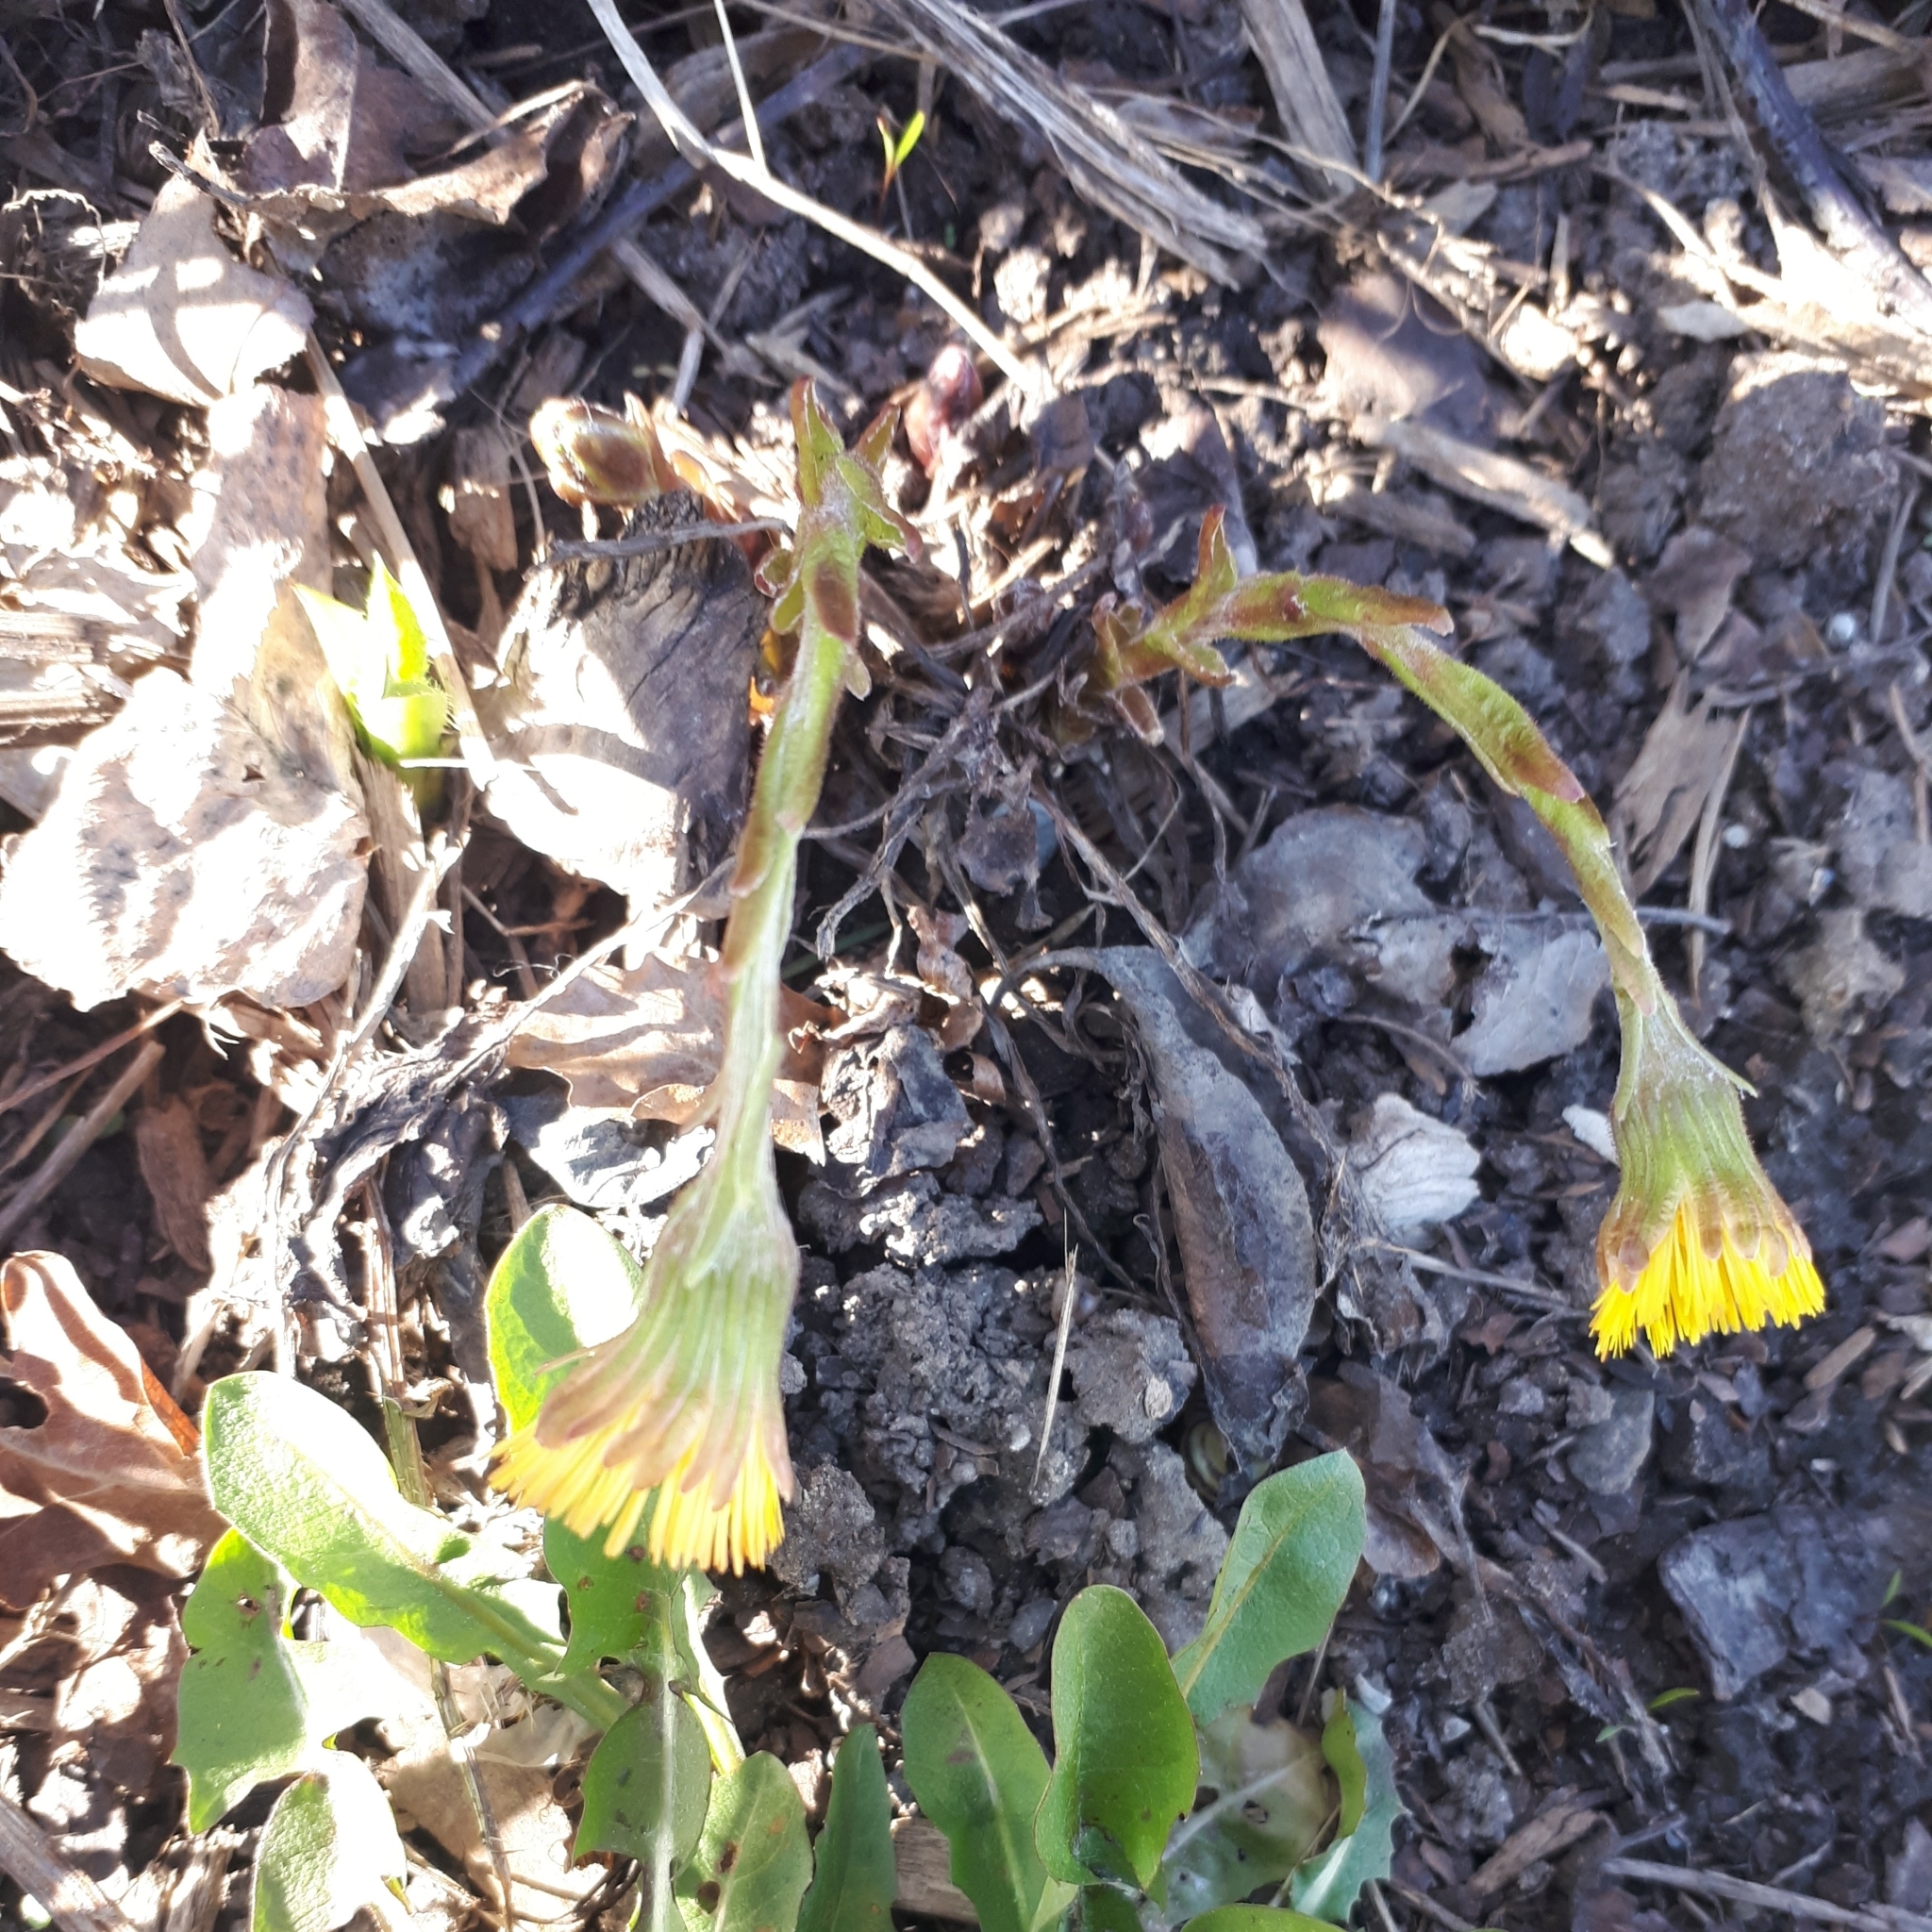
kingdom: Plantae
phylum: Tracheophyta
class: Magnoliopsida
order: Asterales
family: Asteraceae
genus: Tussilago
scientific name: Tussilago farfara
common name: Coltsfoot
